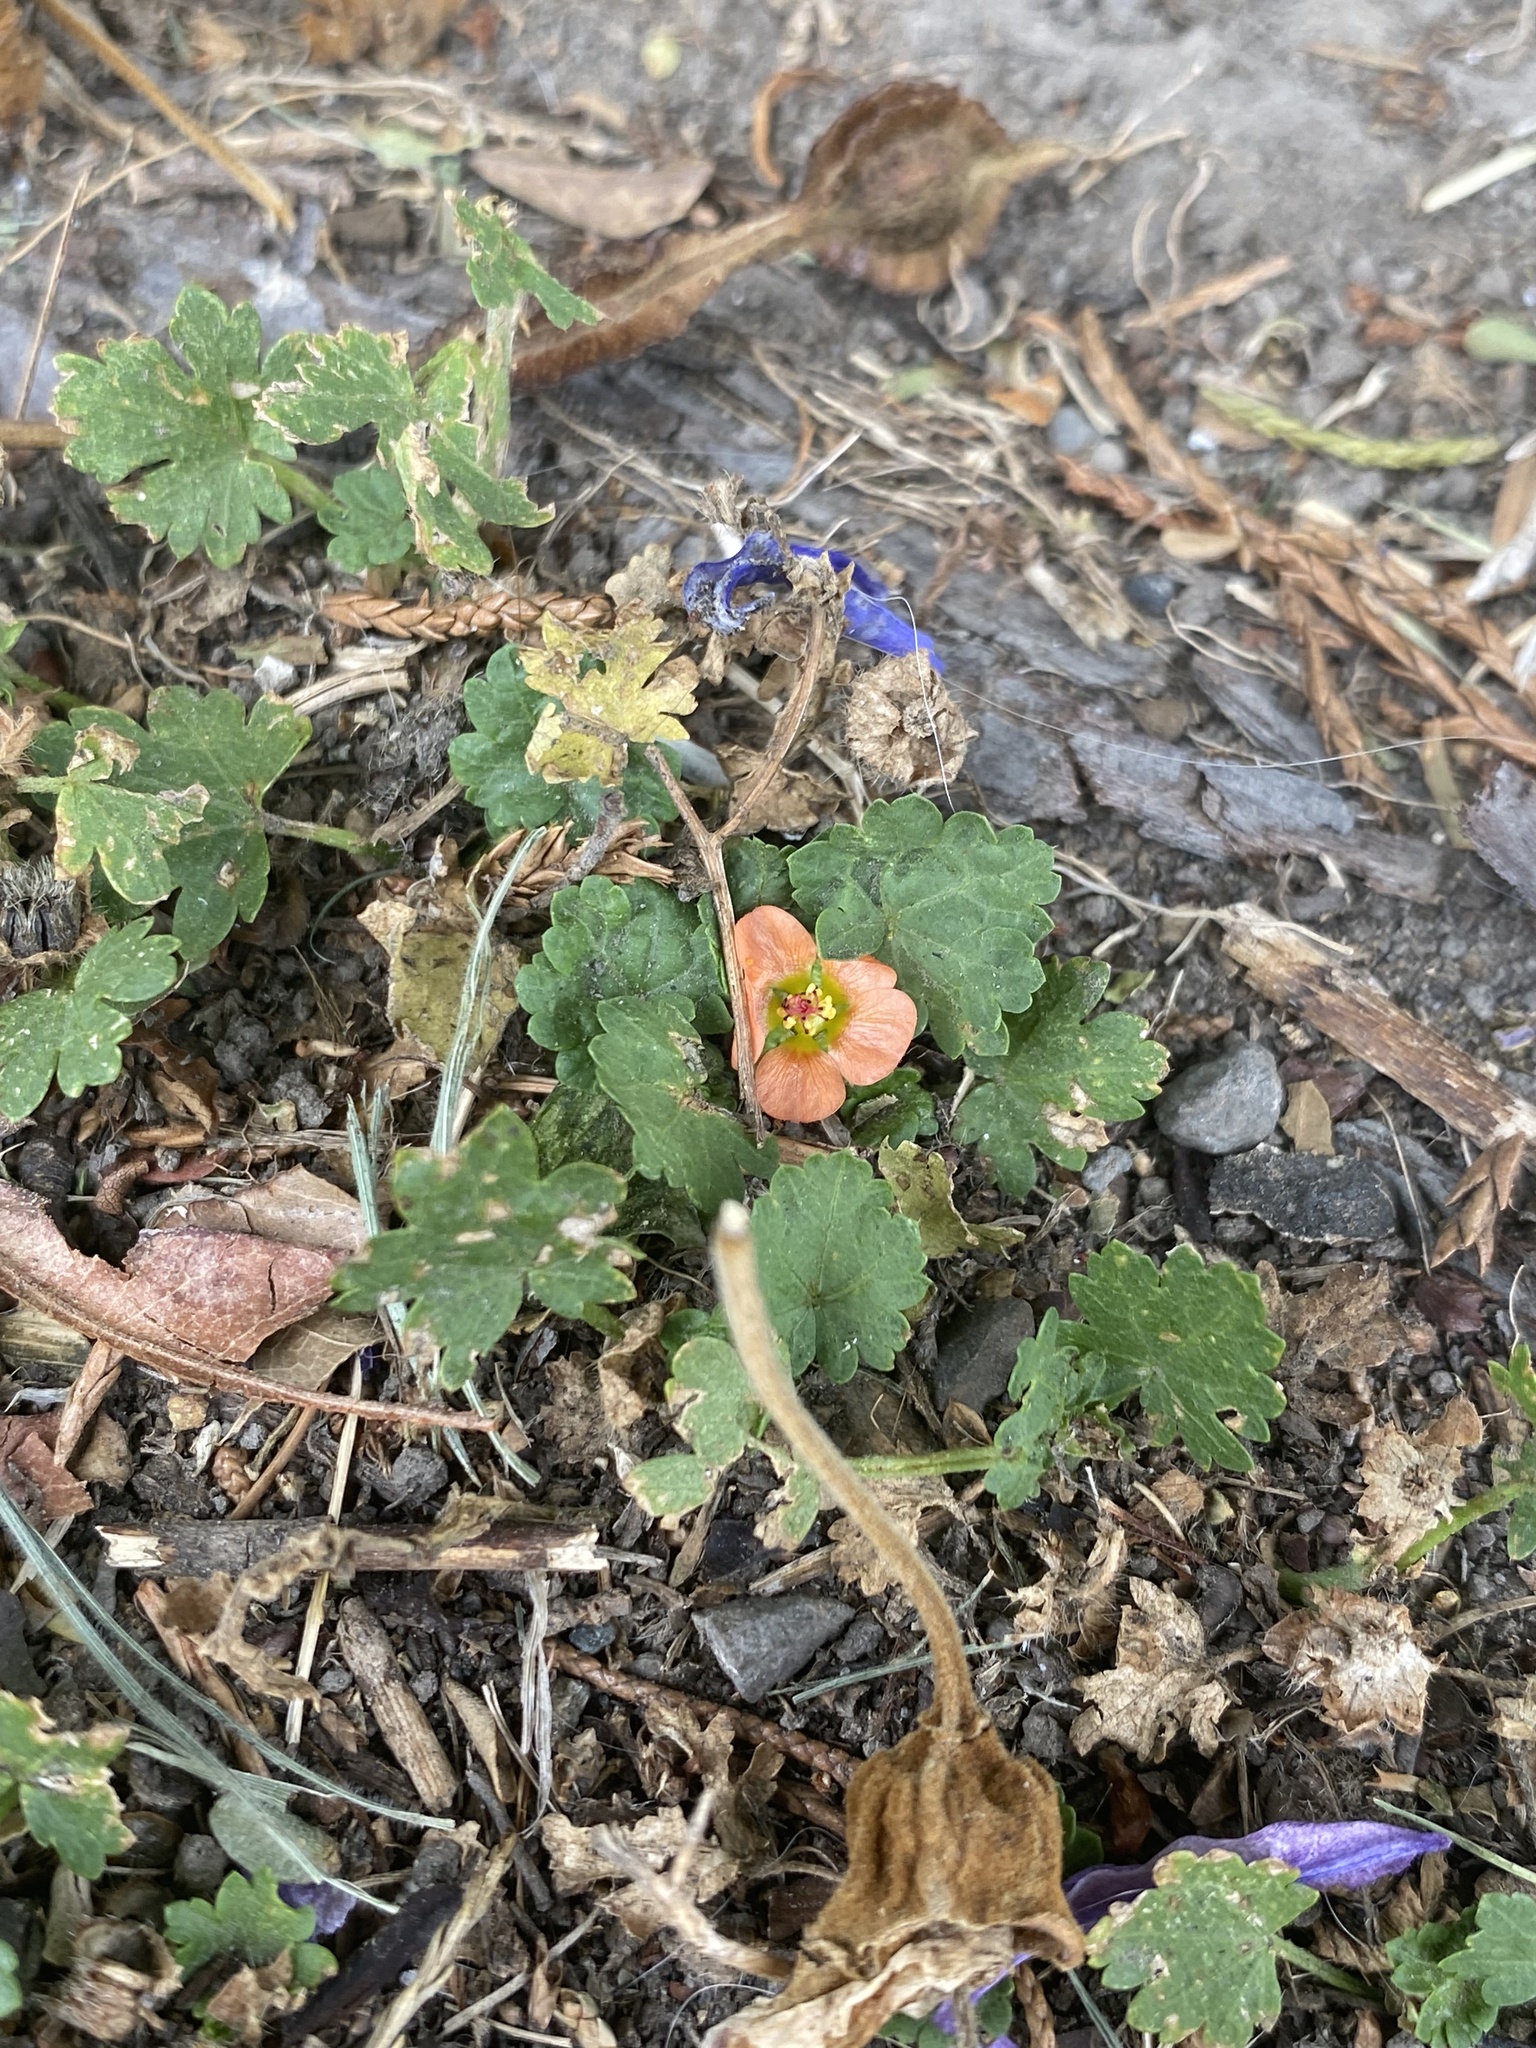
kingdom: Plantae
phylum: Tracheophyta
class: Magnoliopsida
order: Malvales
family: Malvaceae
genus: Modiola
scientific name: Modiola caroliniana
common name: Carolina bristlemallow
